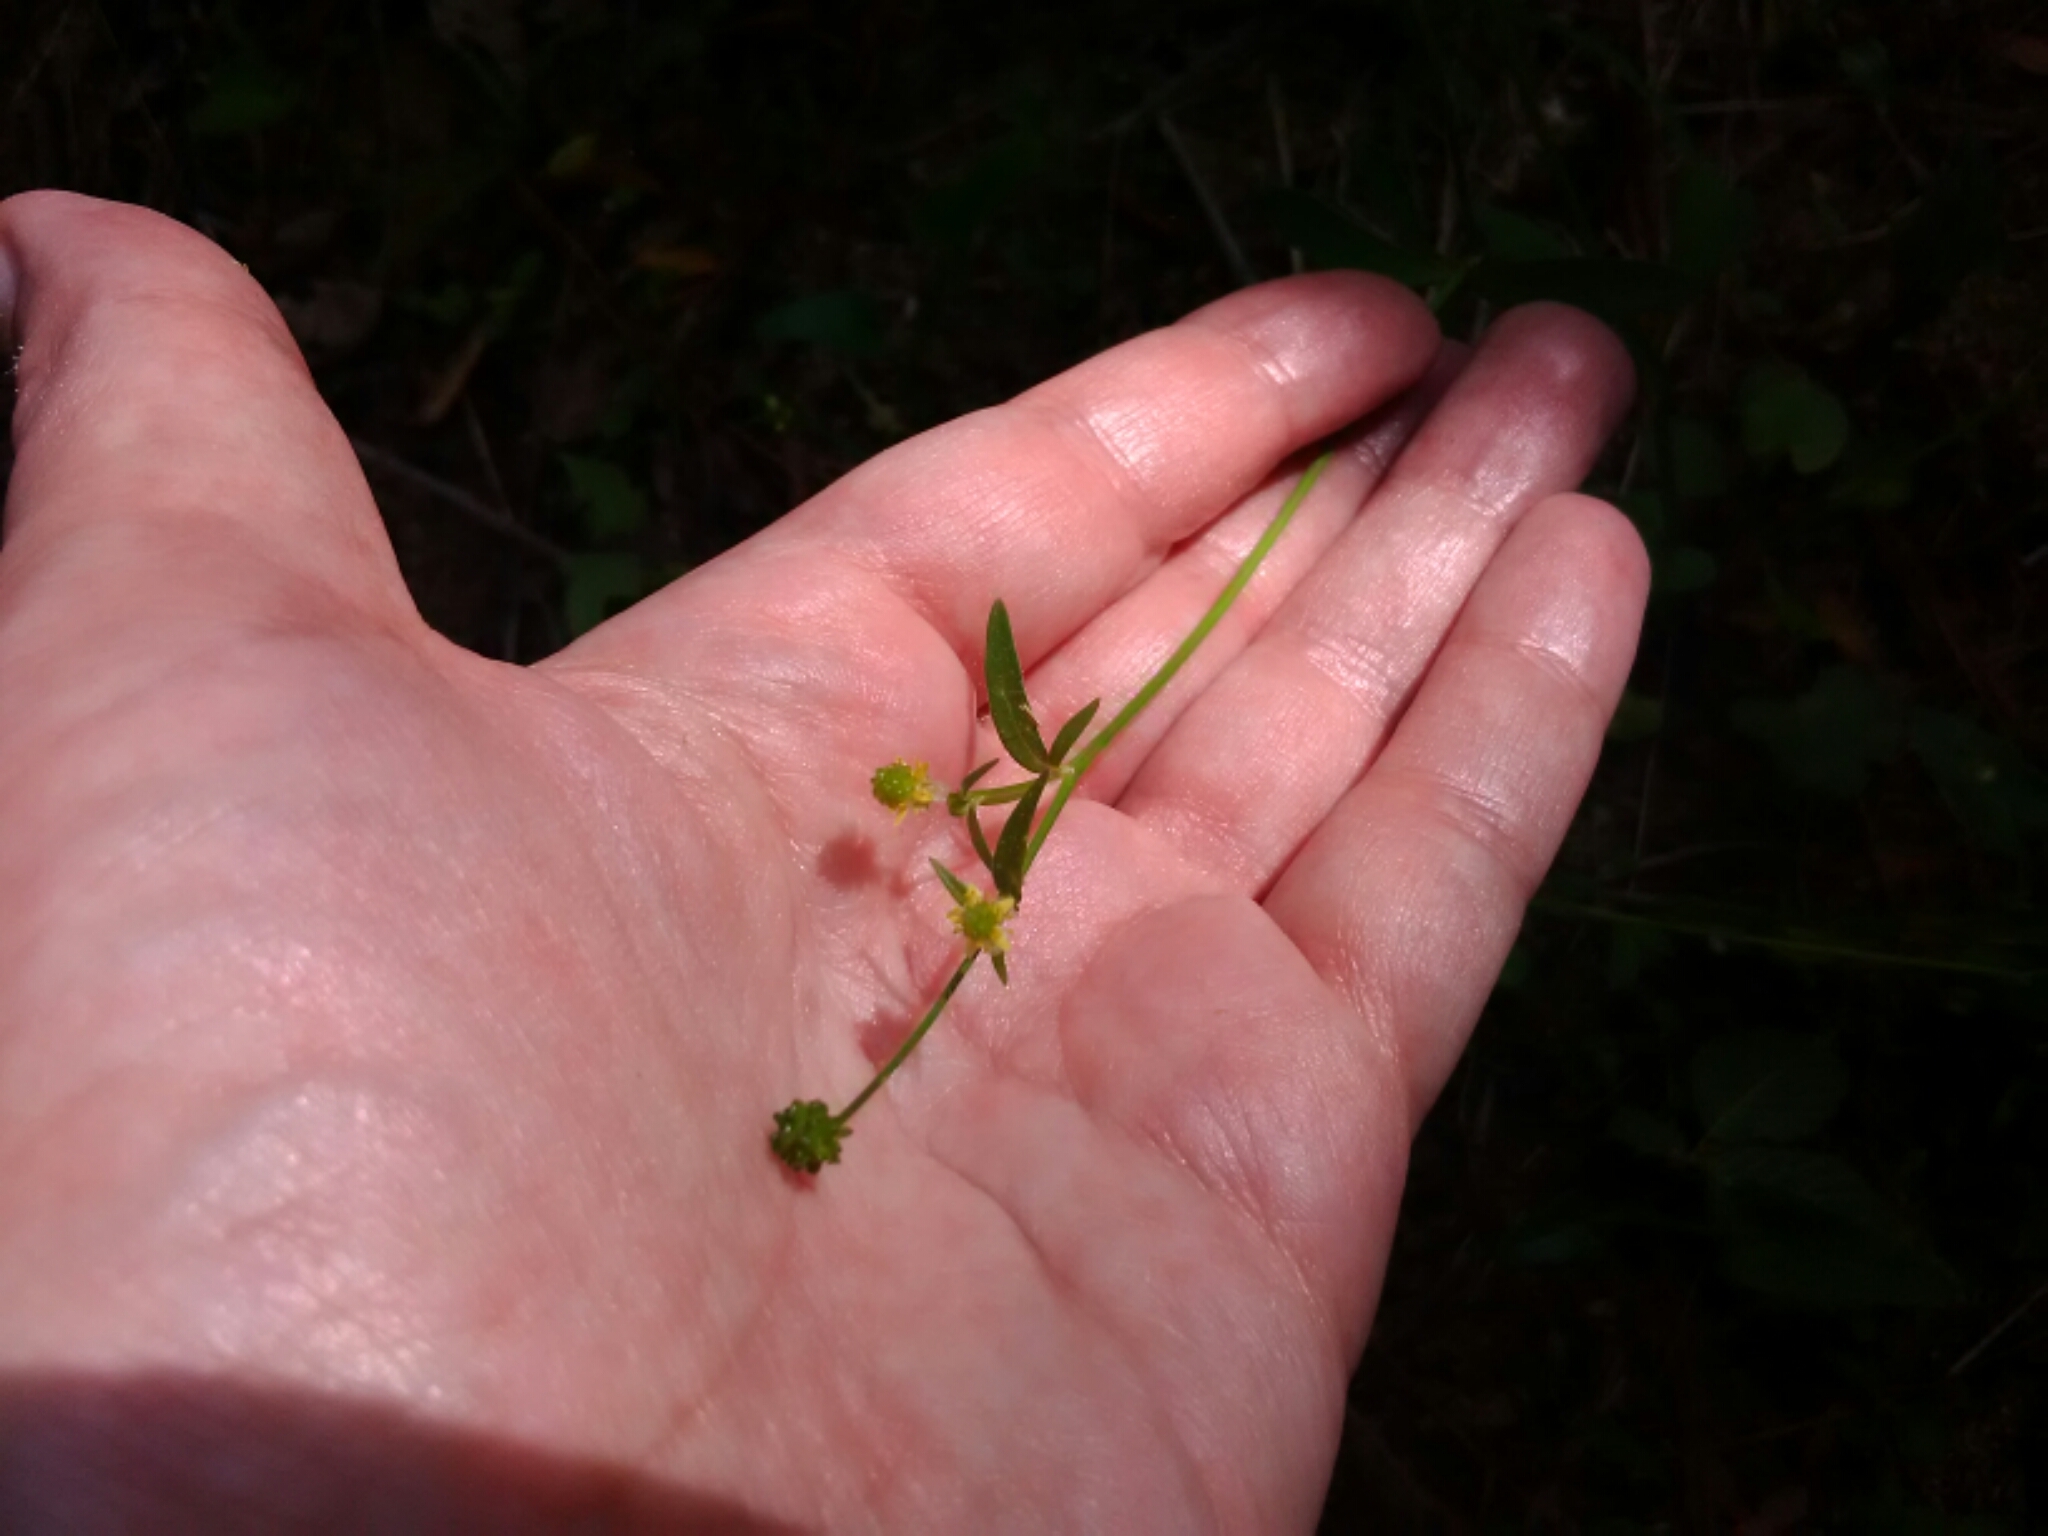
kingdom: Plantae
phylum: Tracheophyta
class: Magnoliopsida
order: Ranunculales
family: Ranunculaceae
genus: Ranunculus
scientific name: Ranunculus abortivus
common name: Early wood buttercup
